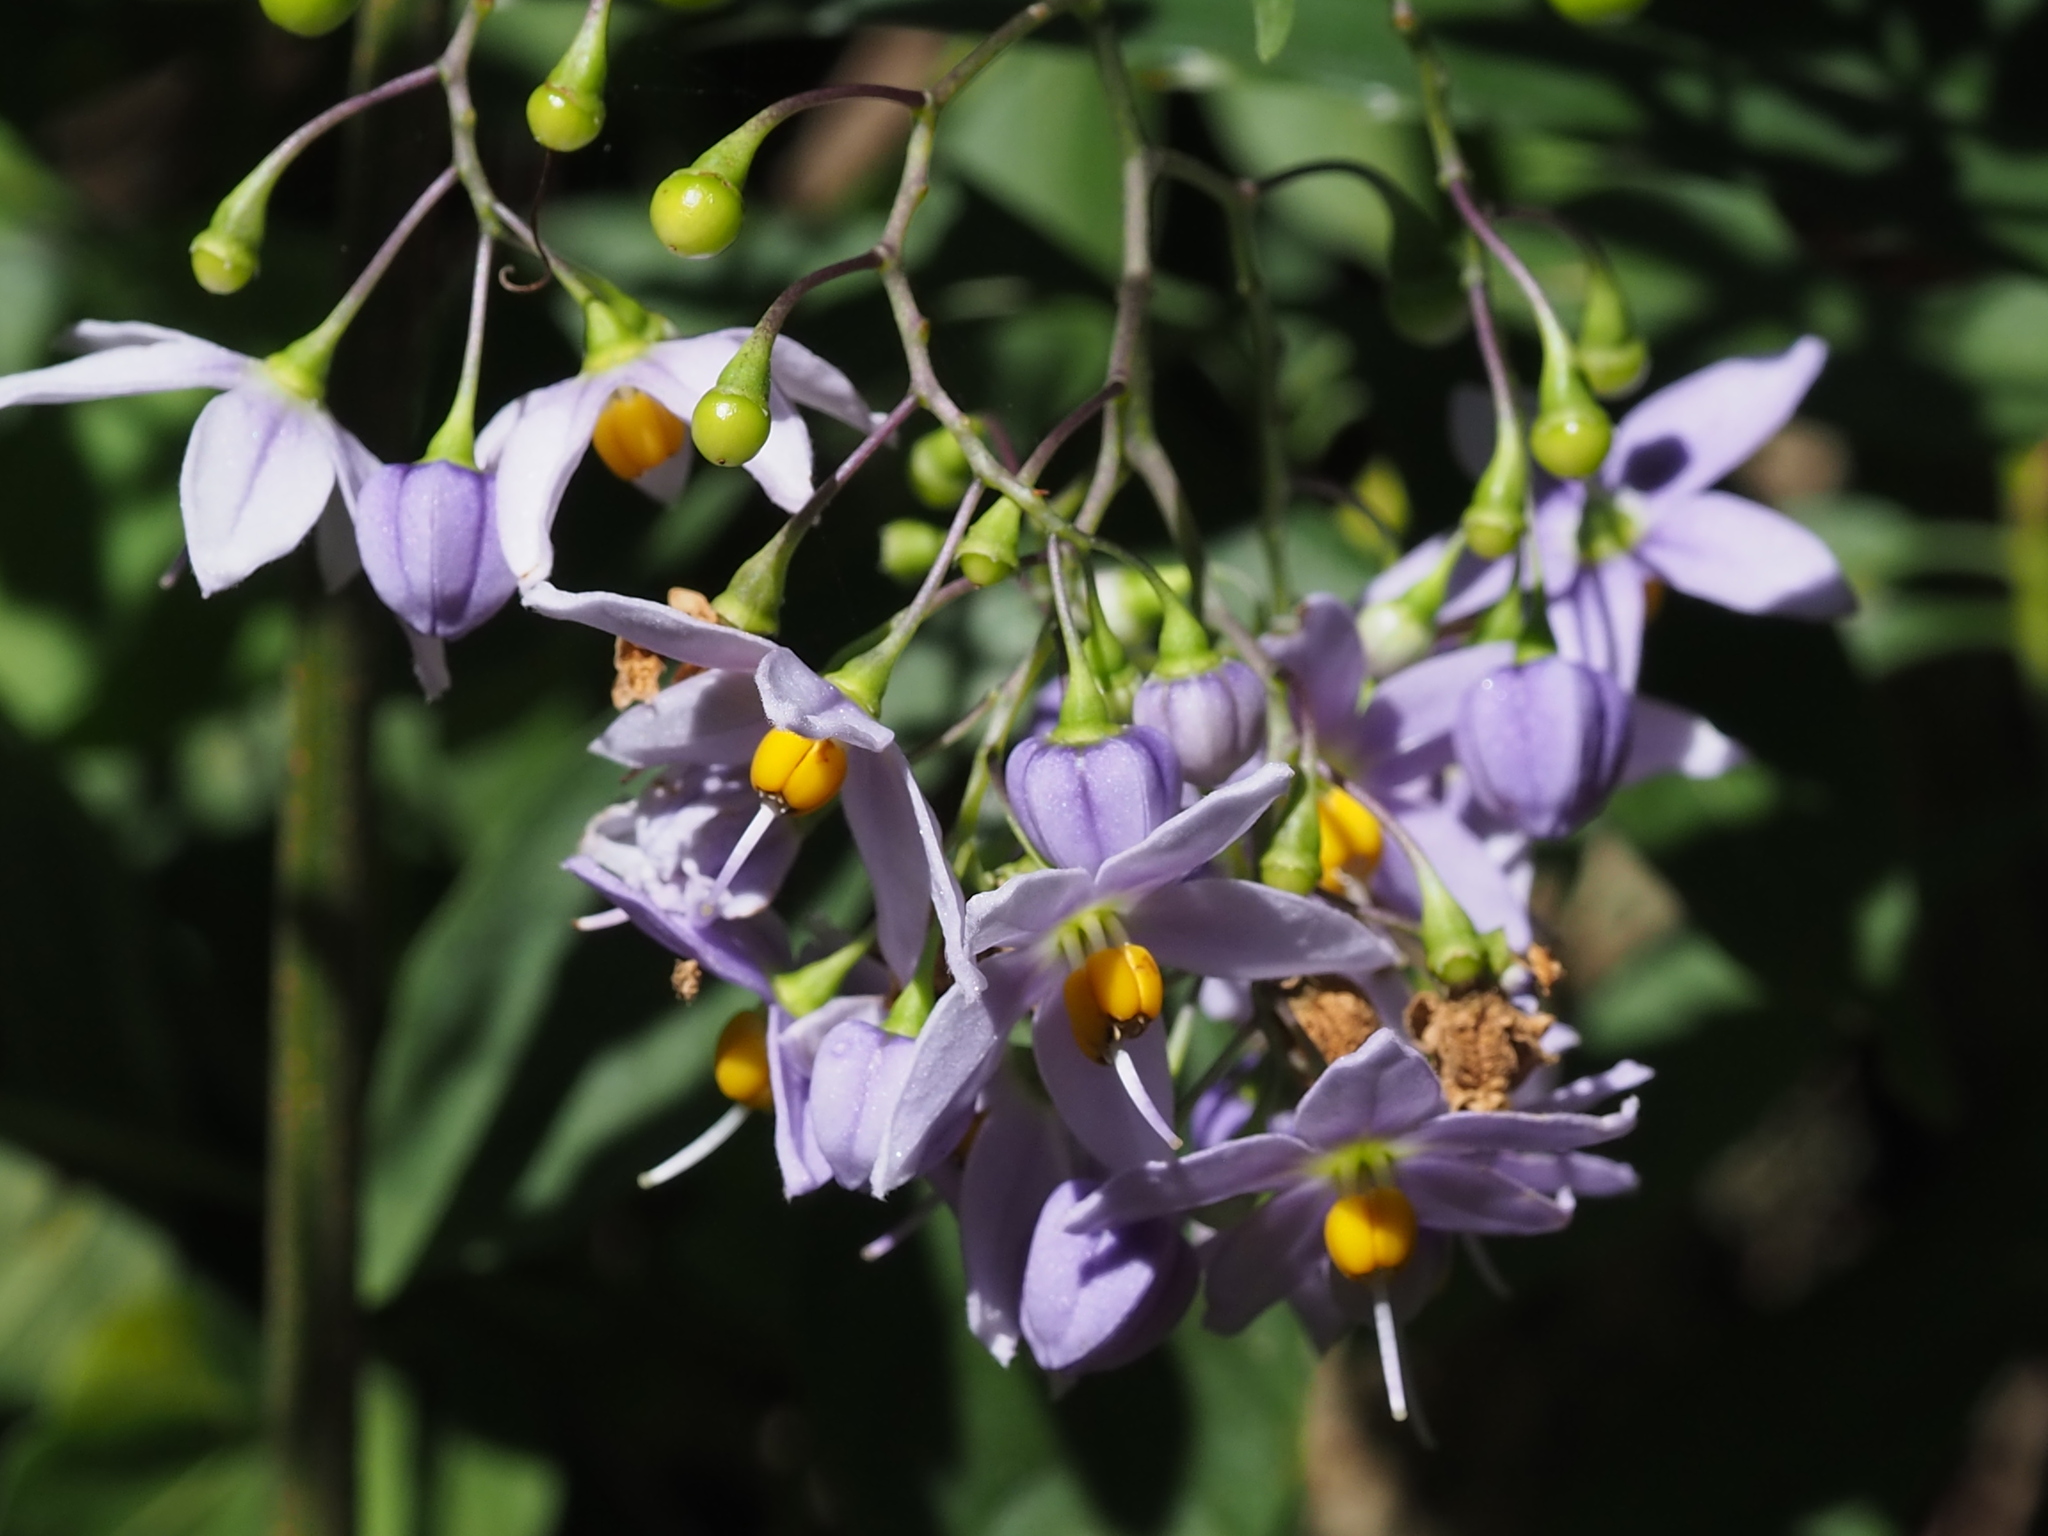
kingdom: Plantae
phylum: Tracheophyta
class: Magnoliopsida
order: Solanales
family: Solanaceae
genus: Solanum
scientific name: Solanum seaforthianum
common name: Brazilian nightshade
